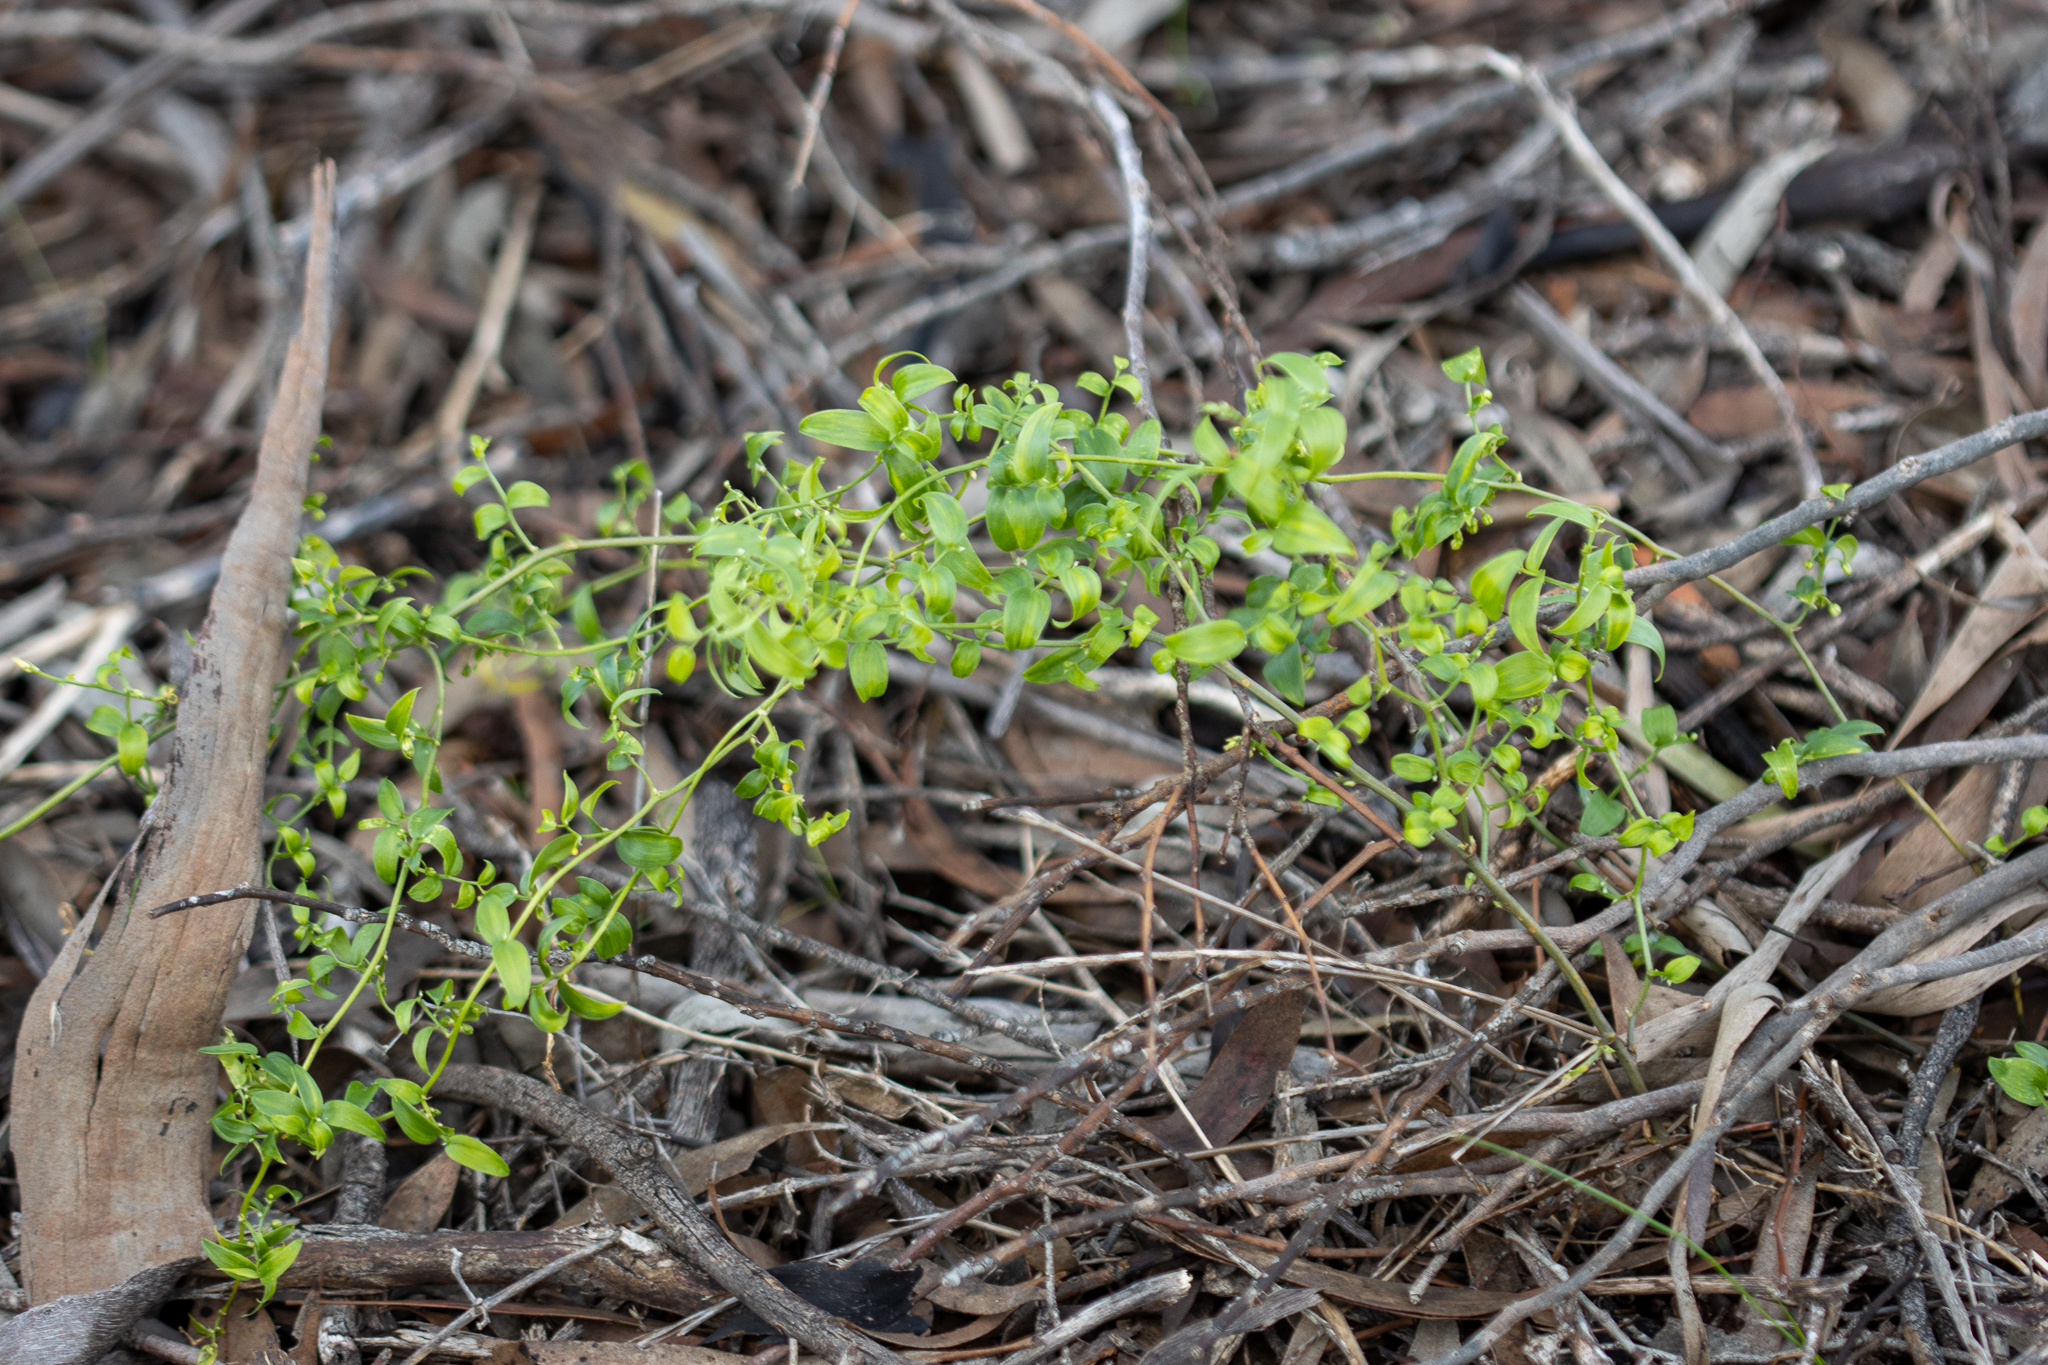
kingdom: Plantae
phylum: Tracheophyta
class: Liliopsida
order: Asparagales
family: Asparagaceae
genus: Asparagus
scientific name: Asparagus asparagoides
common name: African asparagus fern
